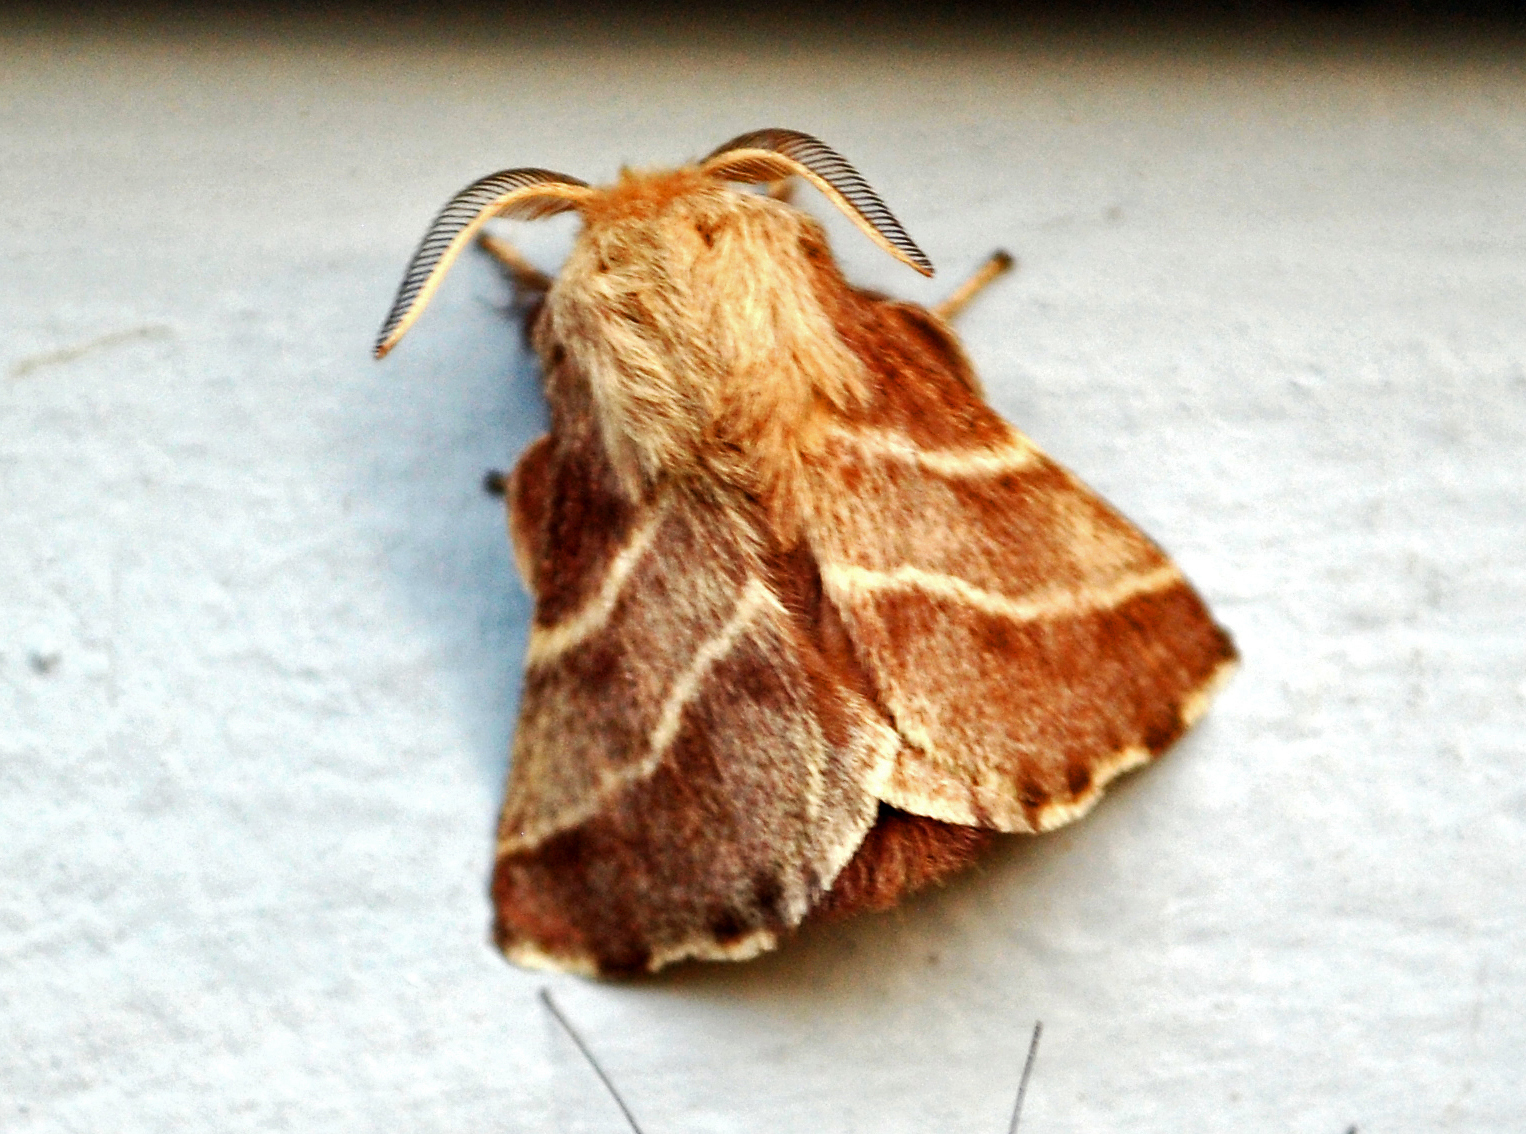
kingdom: Animalia
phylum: Arthropoda
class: Insecta
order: Lepidoptera
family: Lasiocampidae
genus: Malacosoma
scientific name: Malacosoma americana
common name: Eastern tent caterpillar moth
